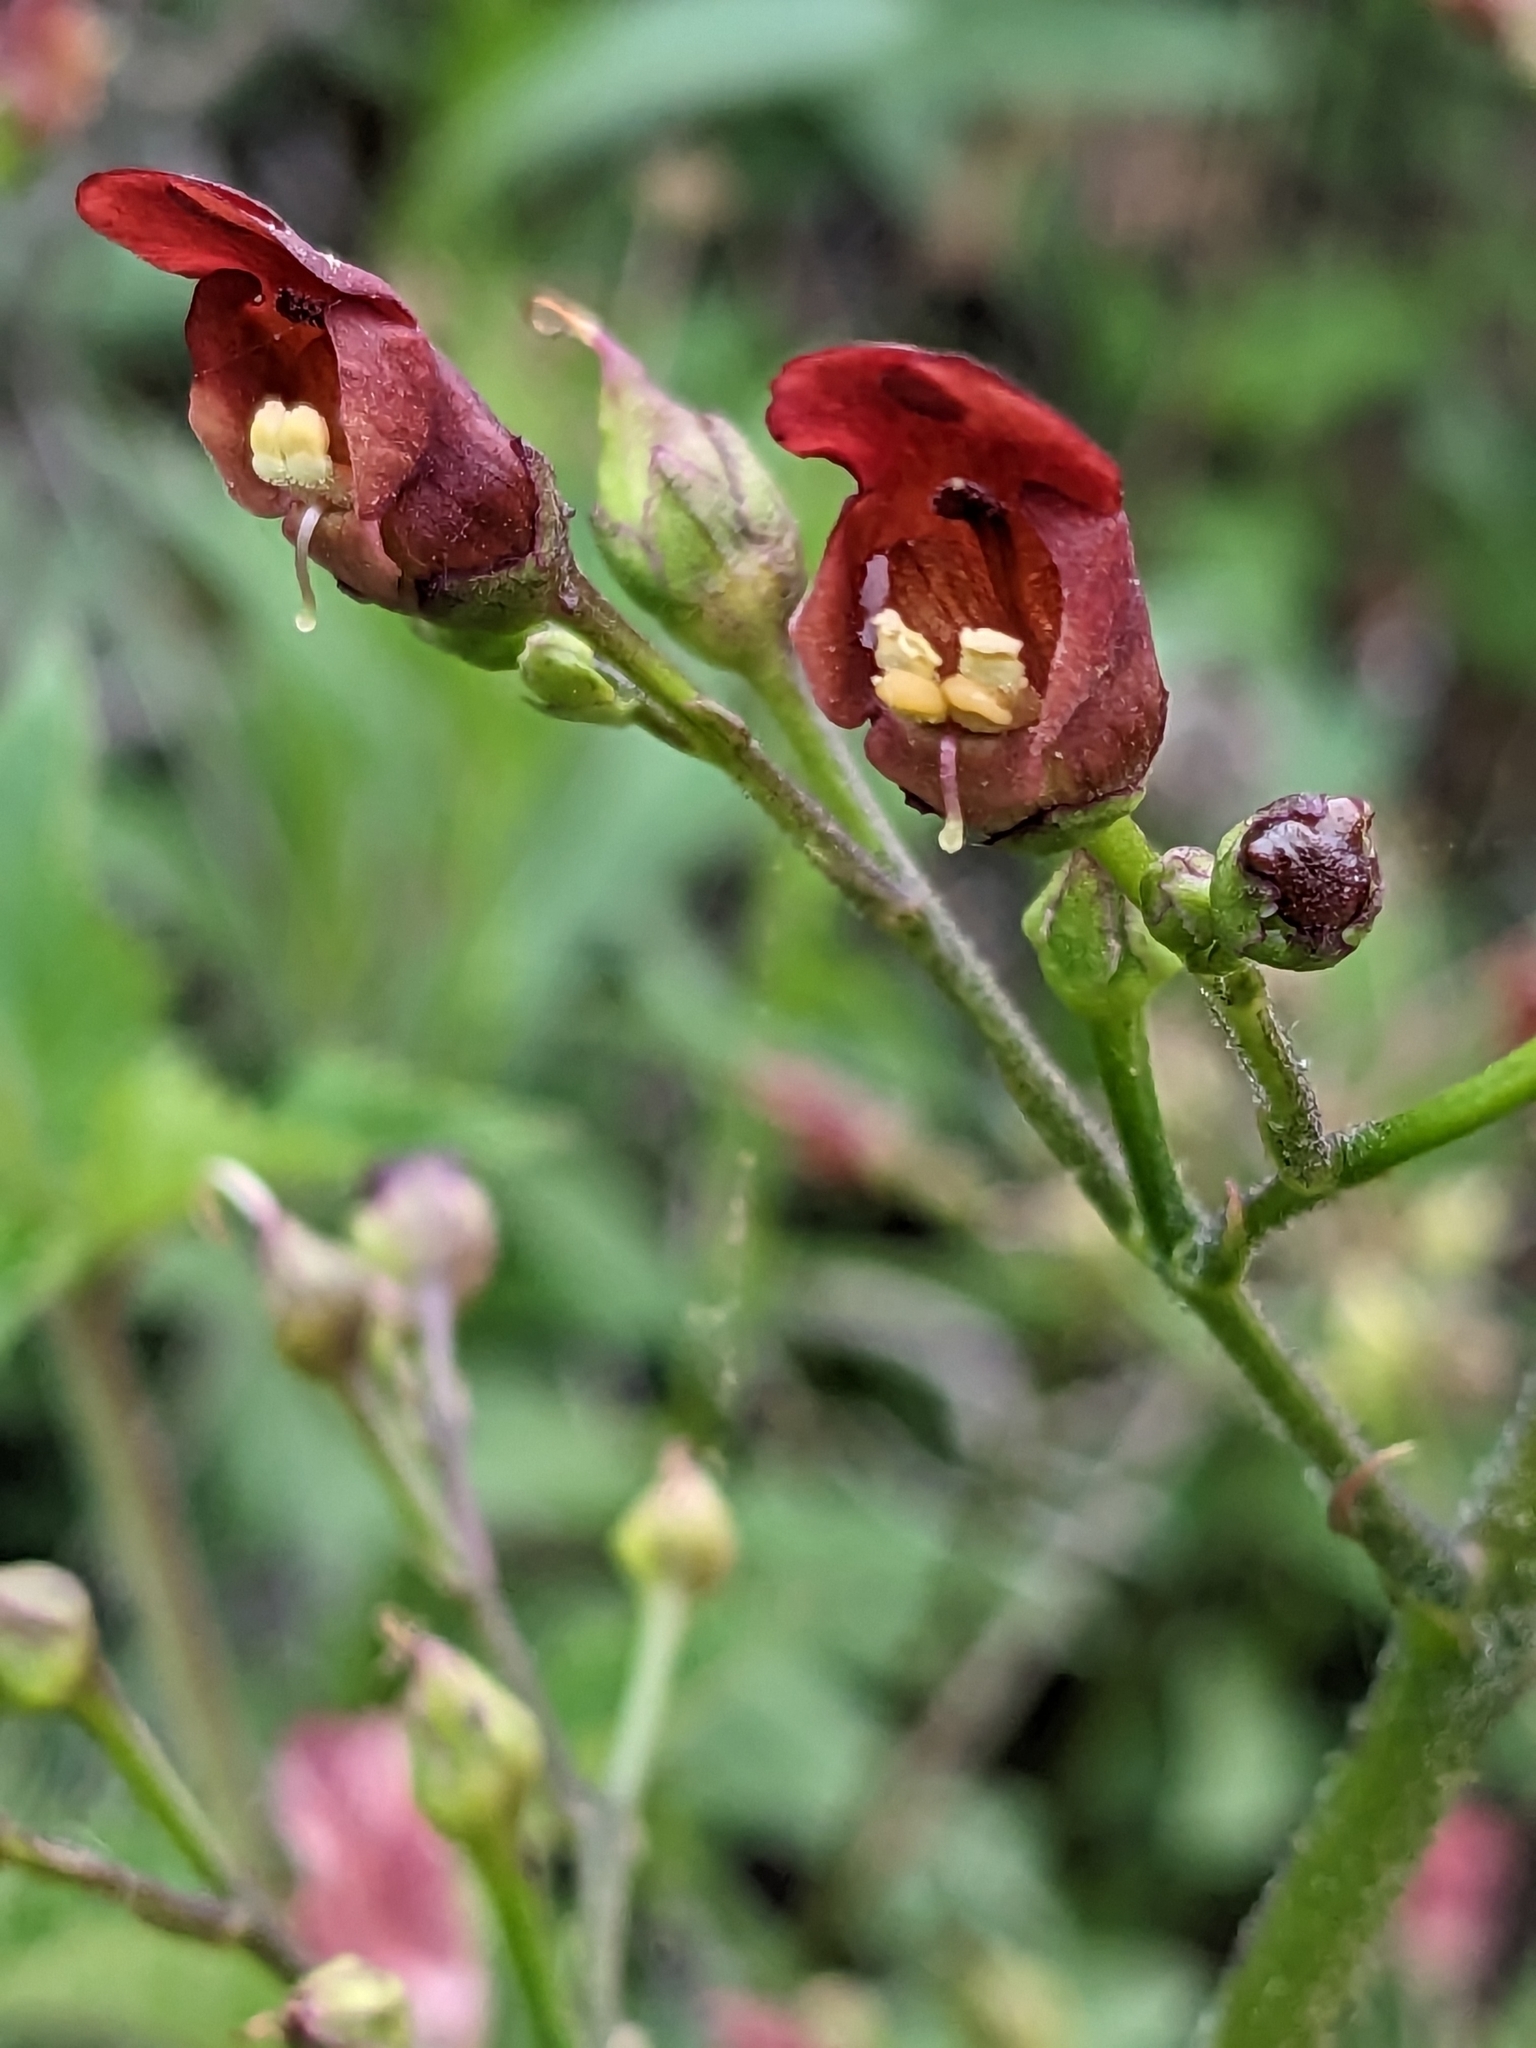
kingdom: Plantae
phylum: Tracheophyta
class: Magnoliopsida
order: Lamiales
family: Scrophulariaceae
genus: Scrophularia
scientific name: Scrophularia californica
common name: California figwort
